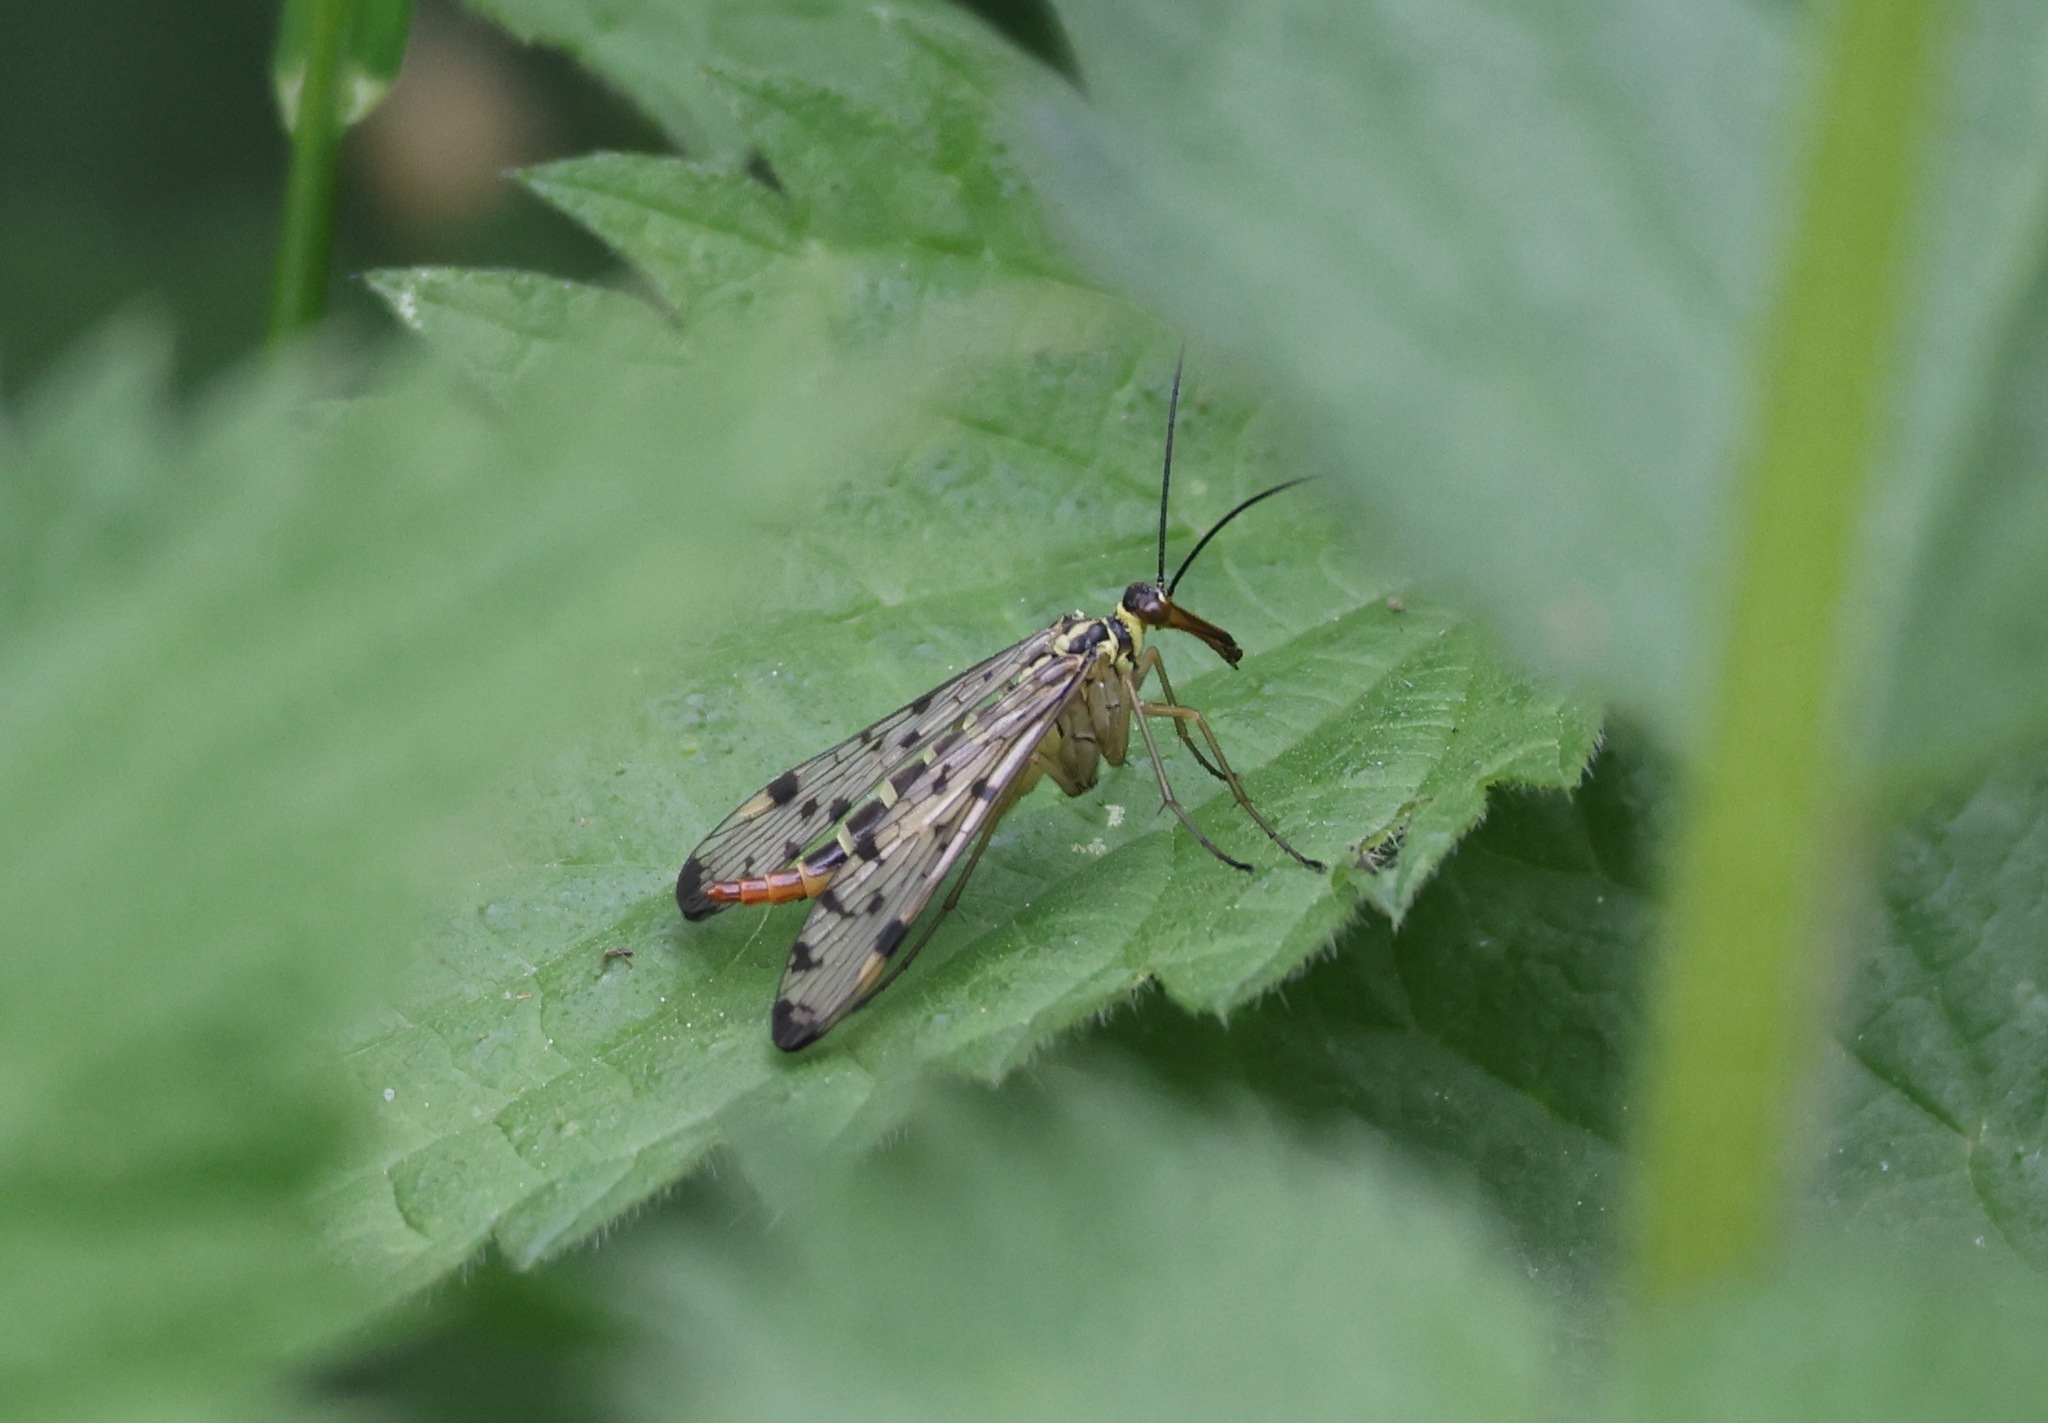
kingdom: Animalia
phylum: Arthropoda
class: Insecta
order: Mecoptera
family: Panorpidae
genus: Panorpa
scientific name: Panorpa germanica
